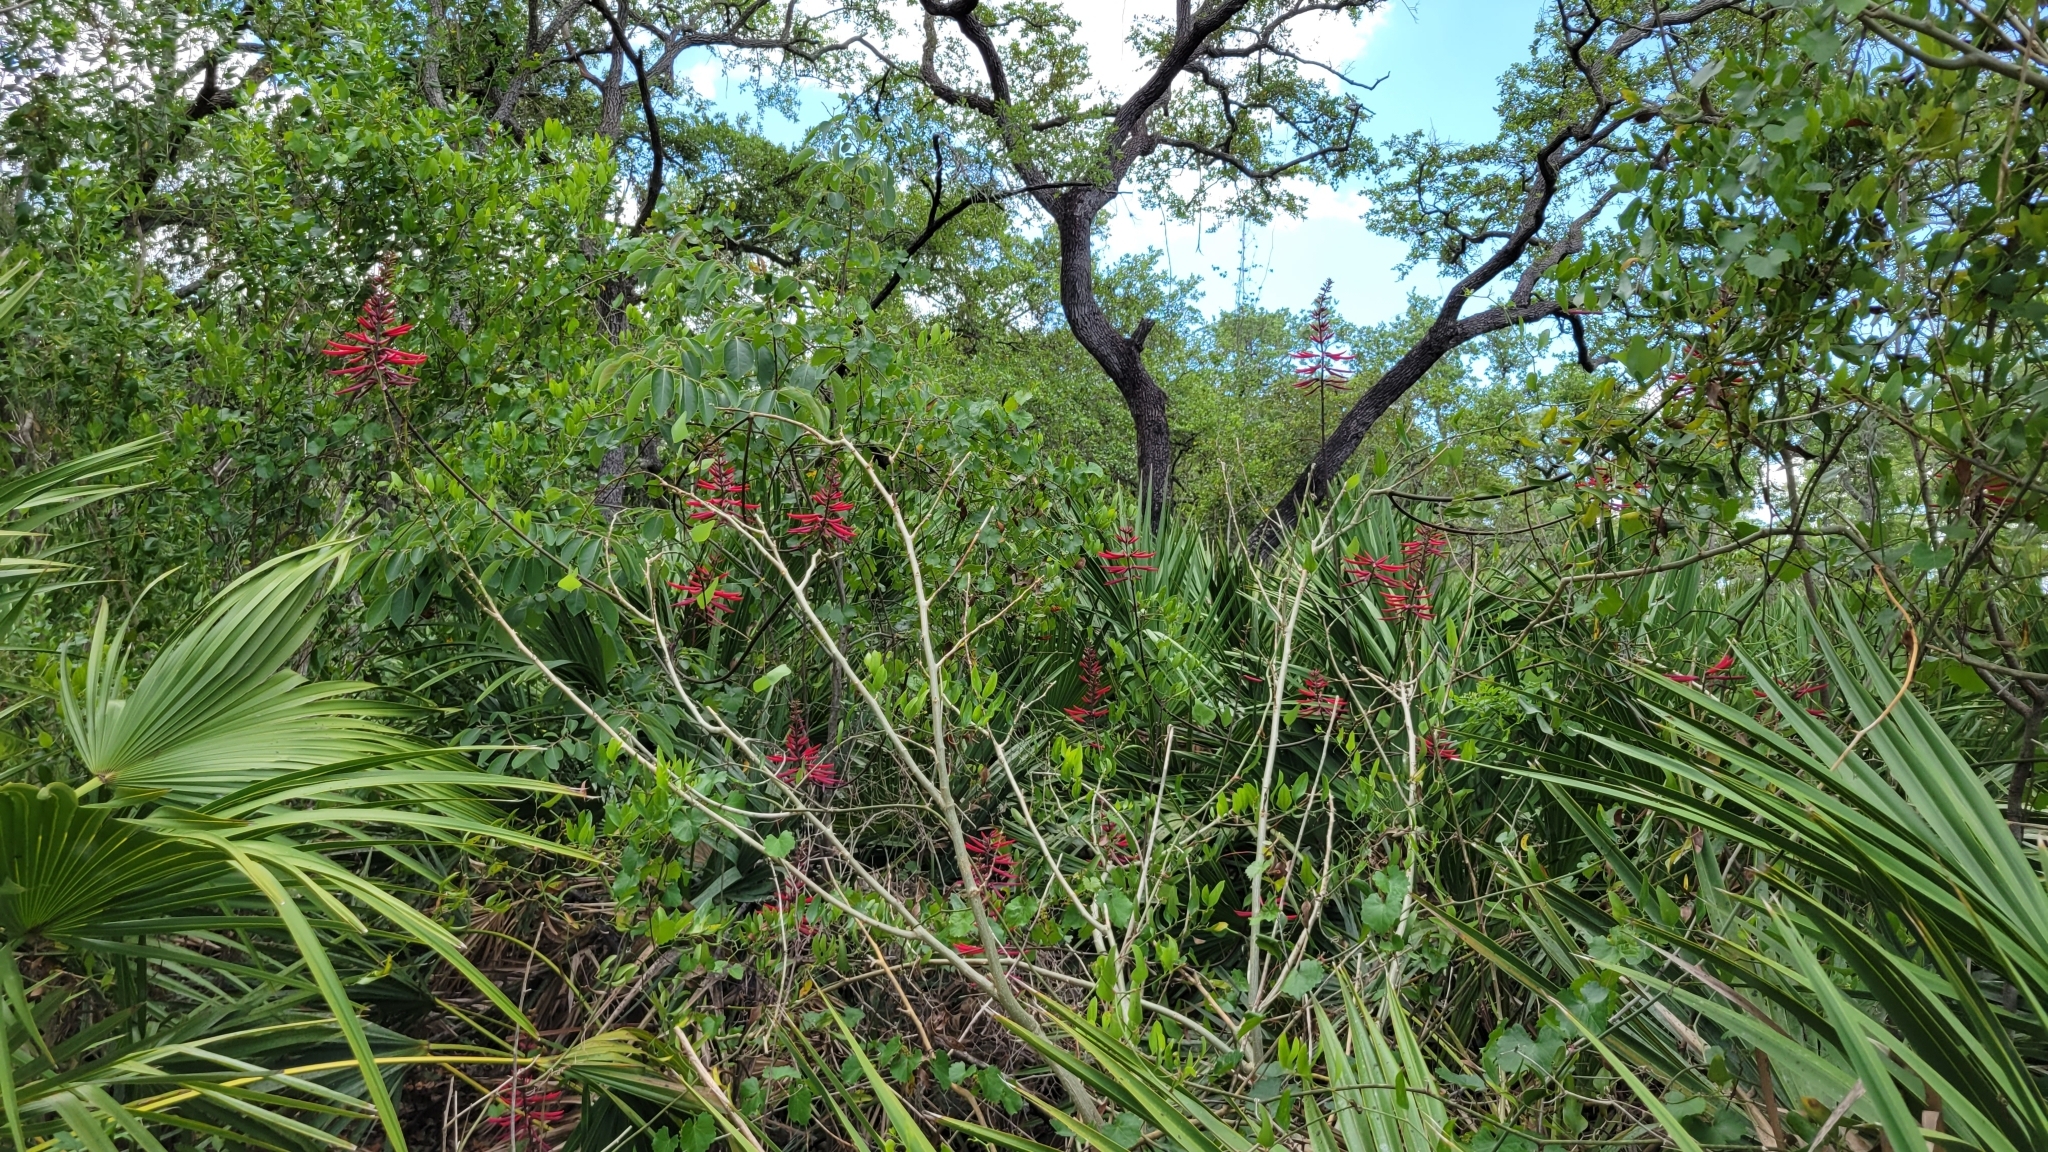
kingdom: Plantae
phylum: Tracheophyta
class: Magnoliopsida
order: Fabales
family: Fabaceae
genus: Erythrina
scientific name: Erythrina herbacea
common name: Coral-bean
